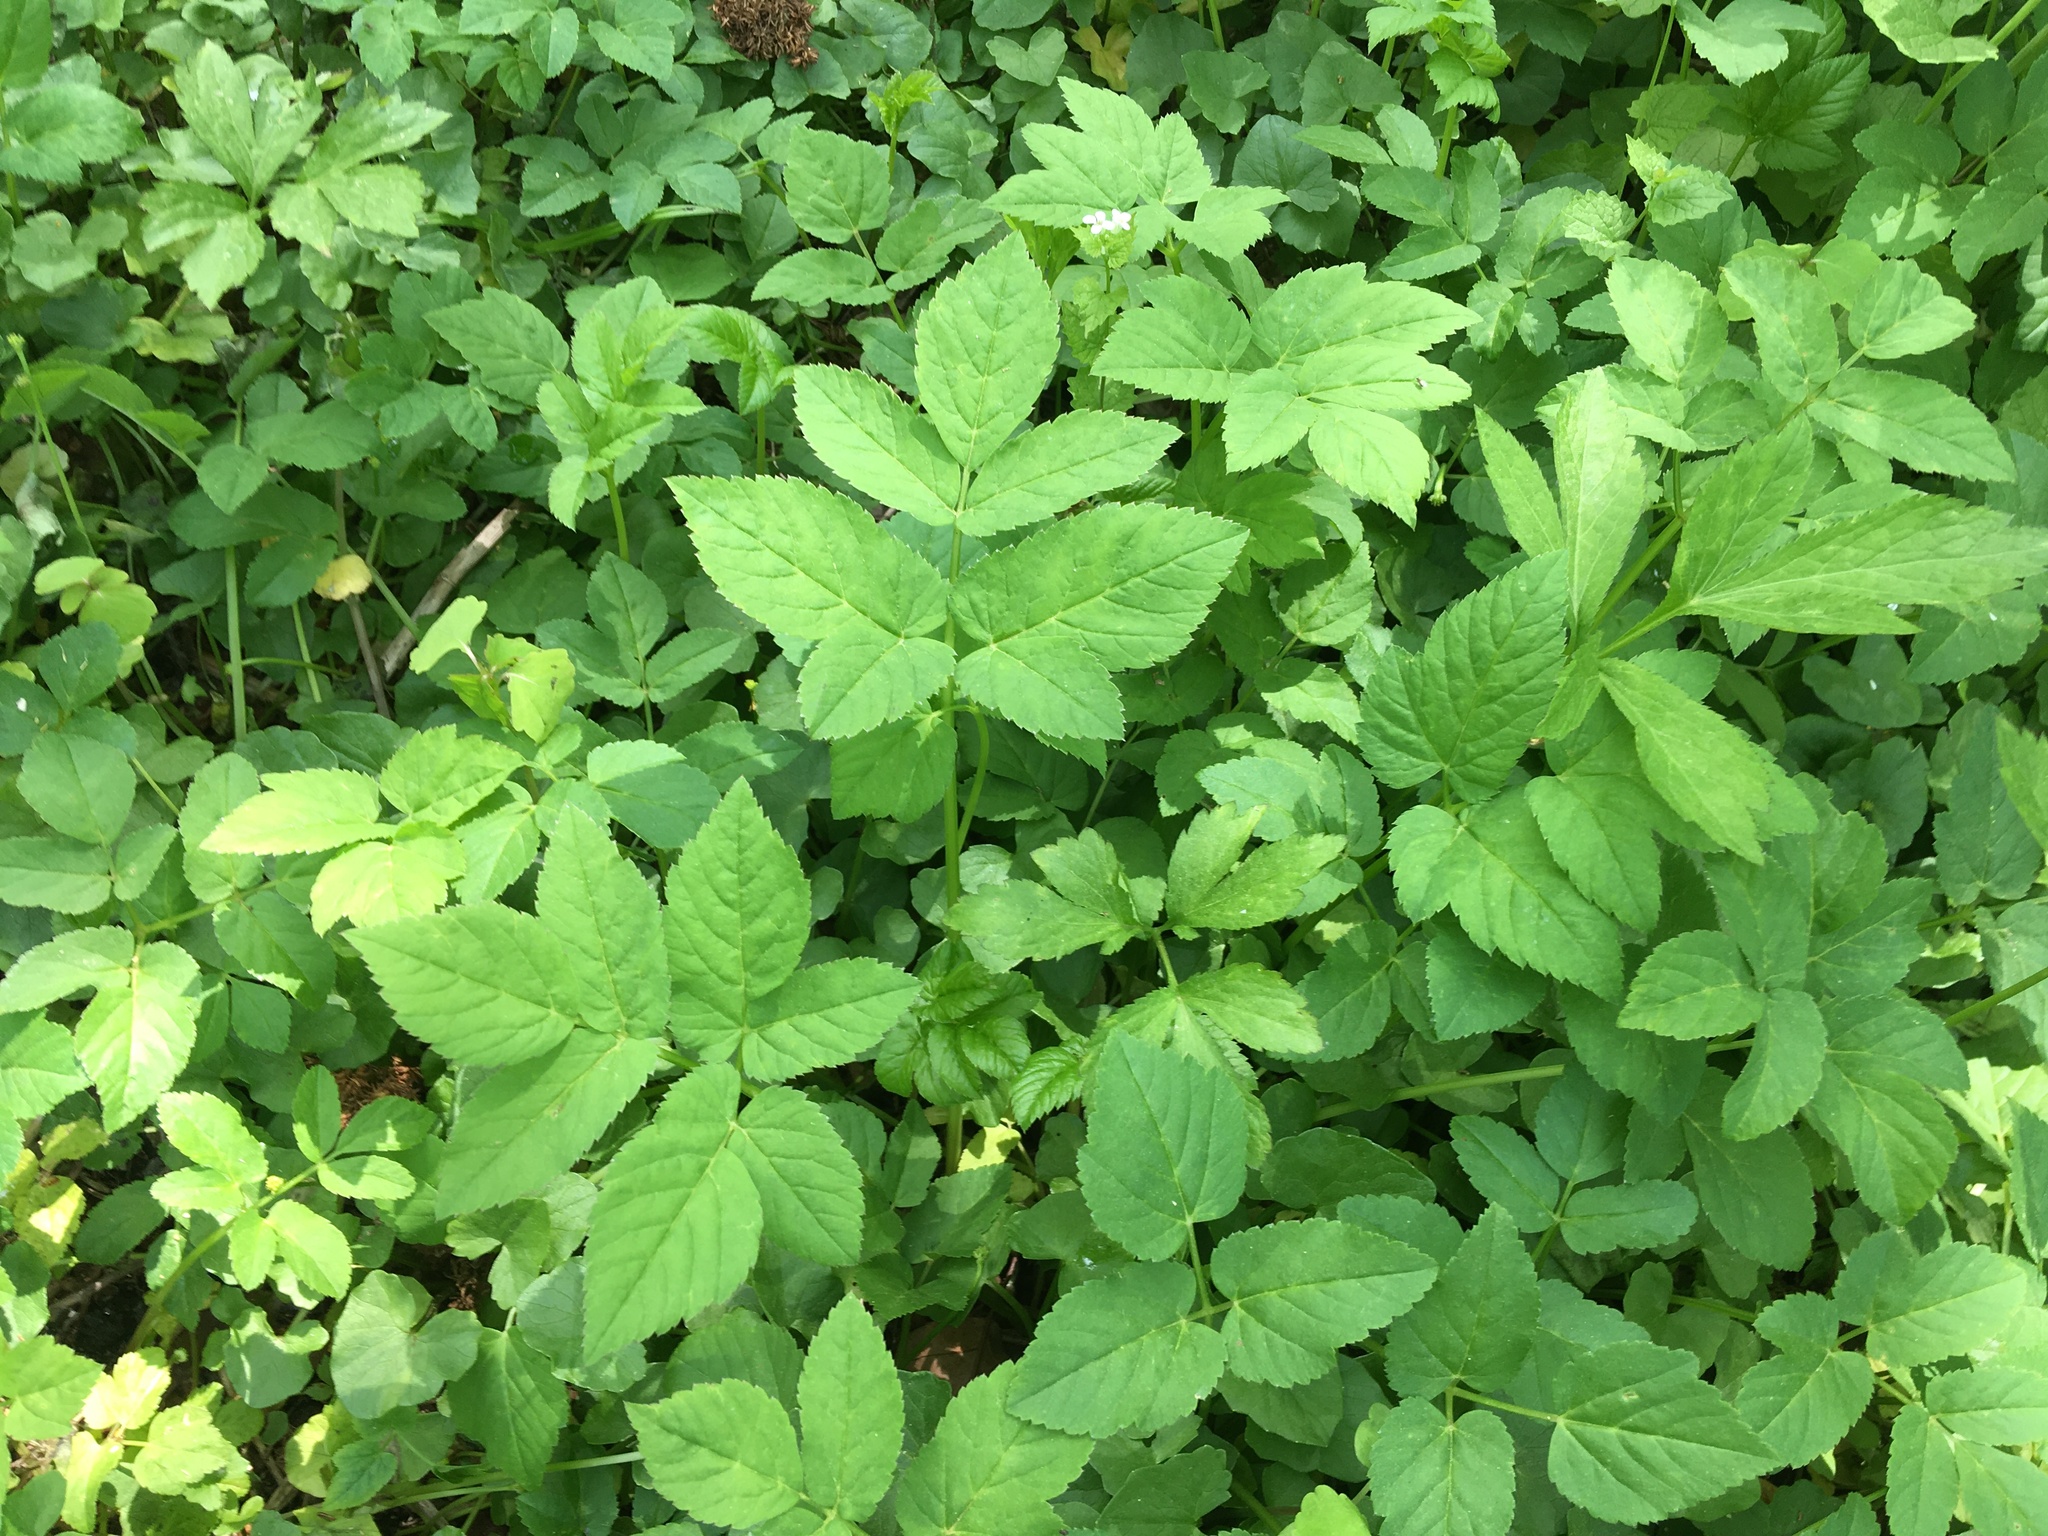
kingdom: Plantae
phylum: Tracheophyta
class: Magnoliopsida
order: Apiales
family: Apiaceae
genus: Aegopodium
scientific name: Aegopodium podagraria
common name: Ground-elder
